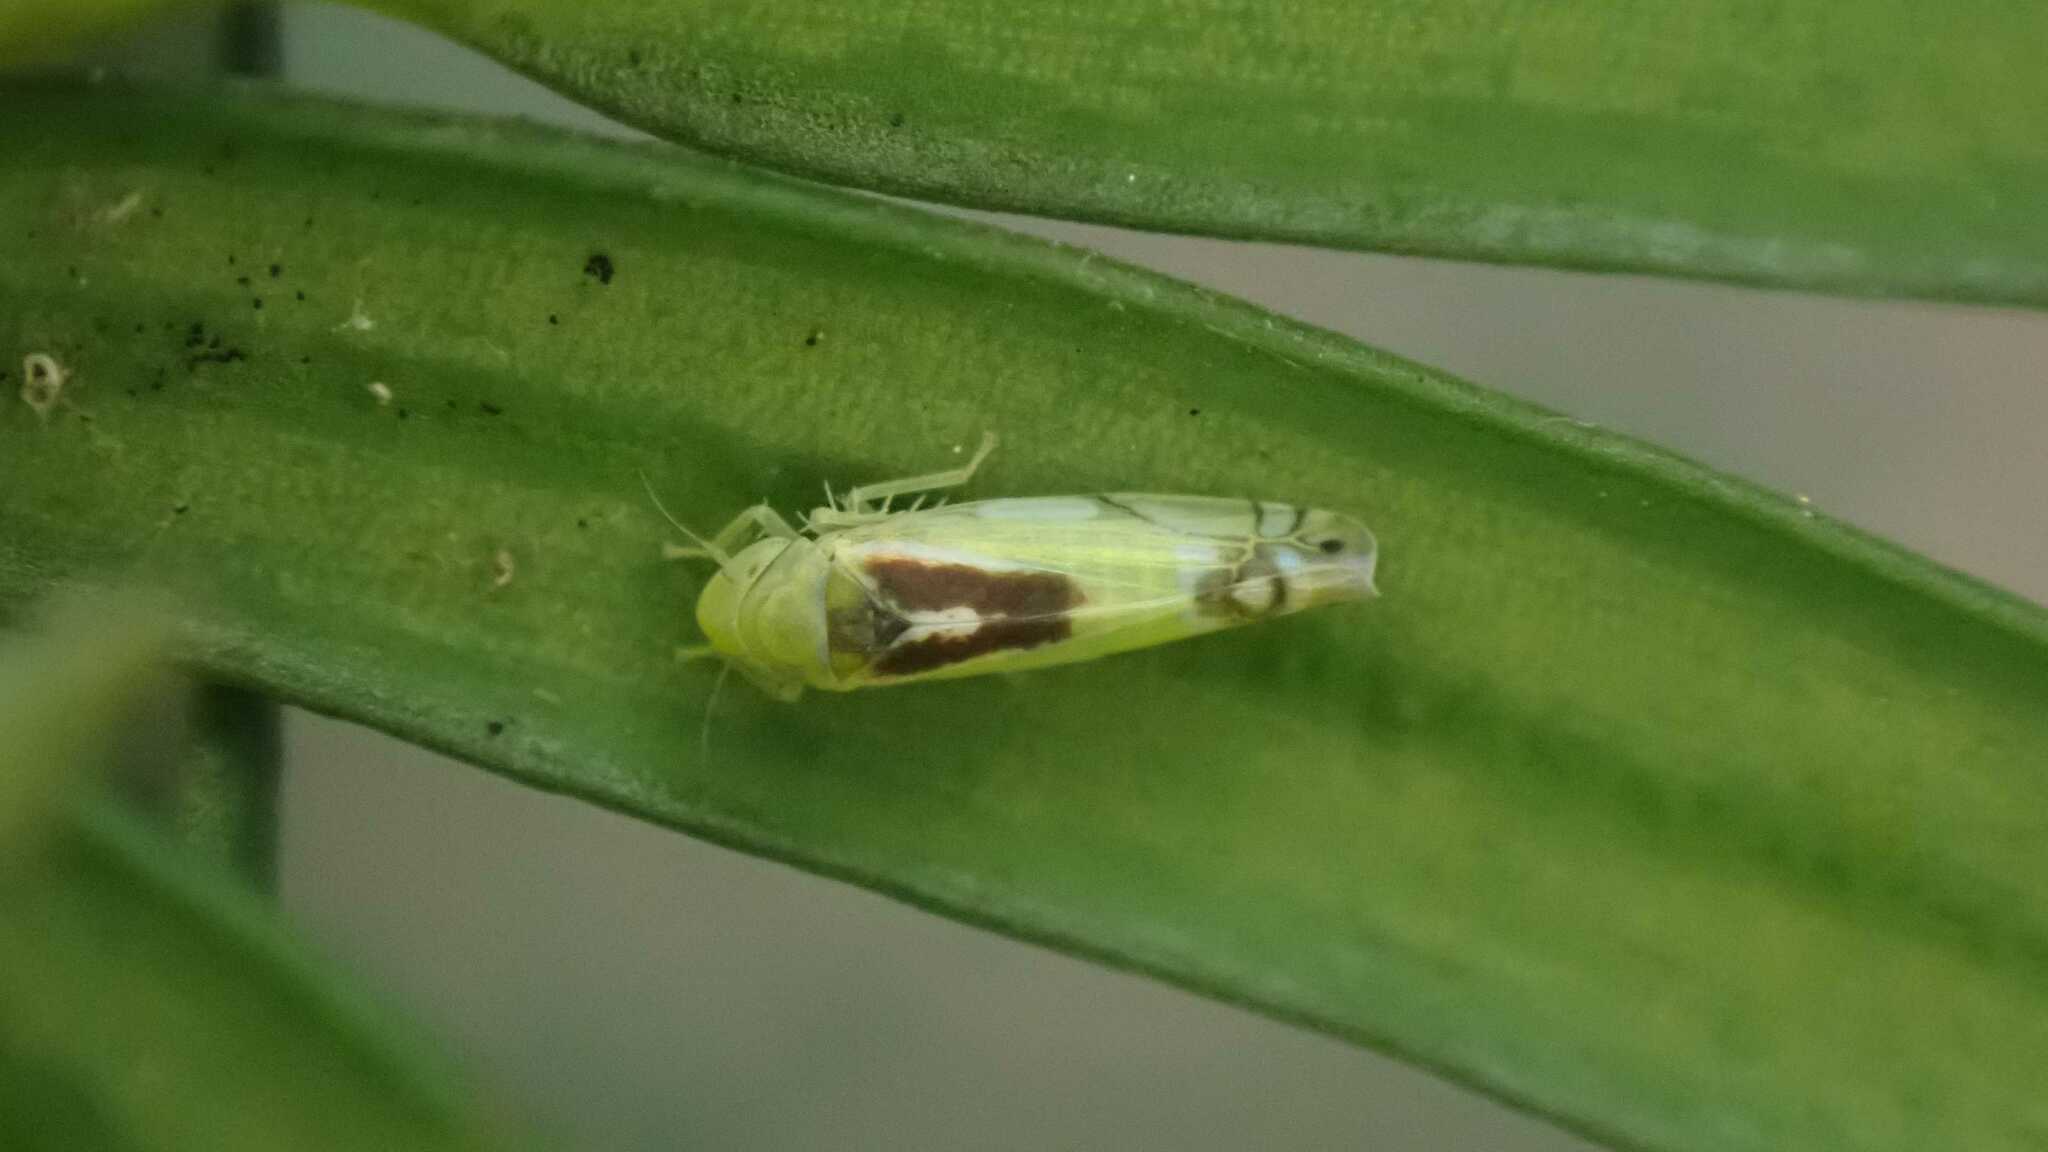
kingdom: Animalia
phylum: Arthropoda
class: Insecta
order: Hemiptera
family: Cicadellidae
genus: Zyginella
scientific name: Zyginella pulchra
